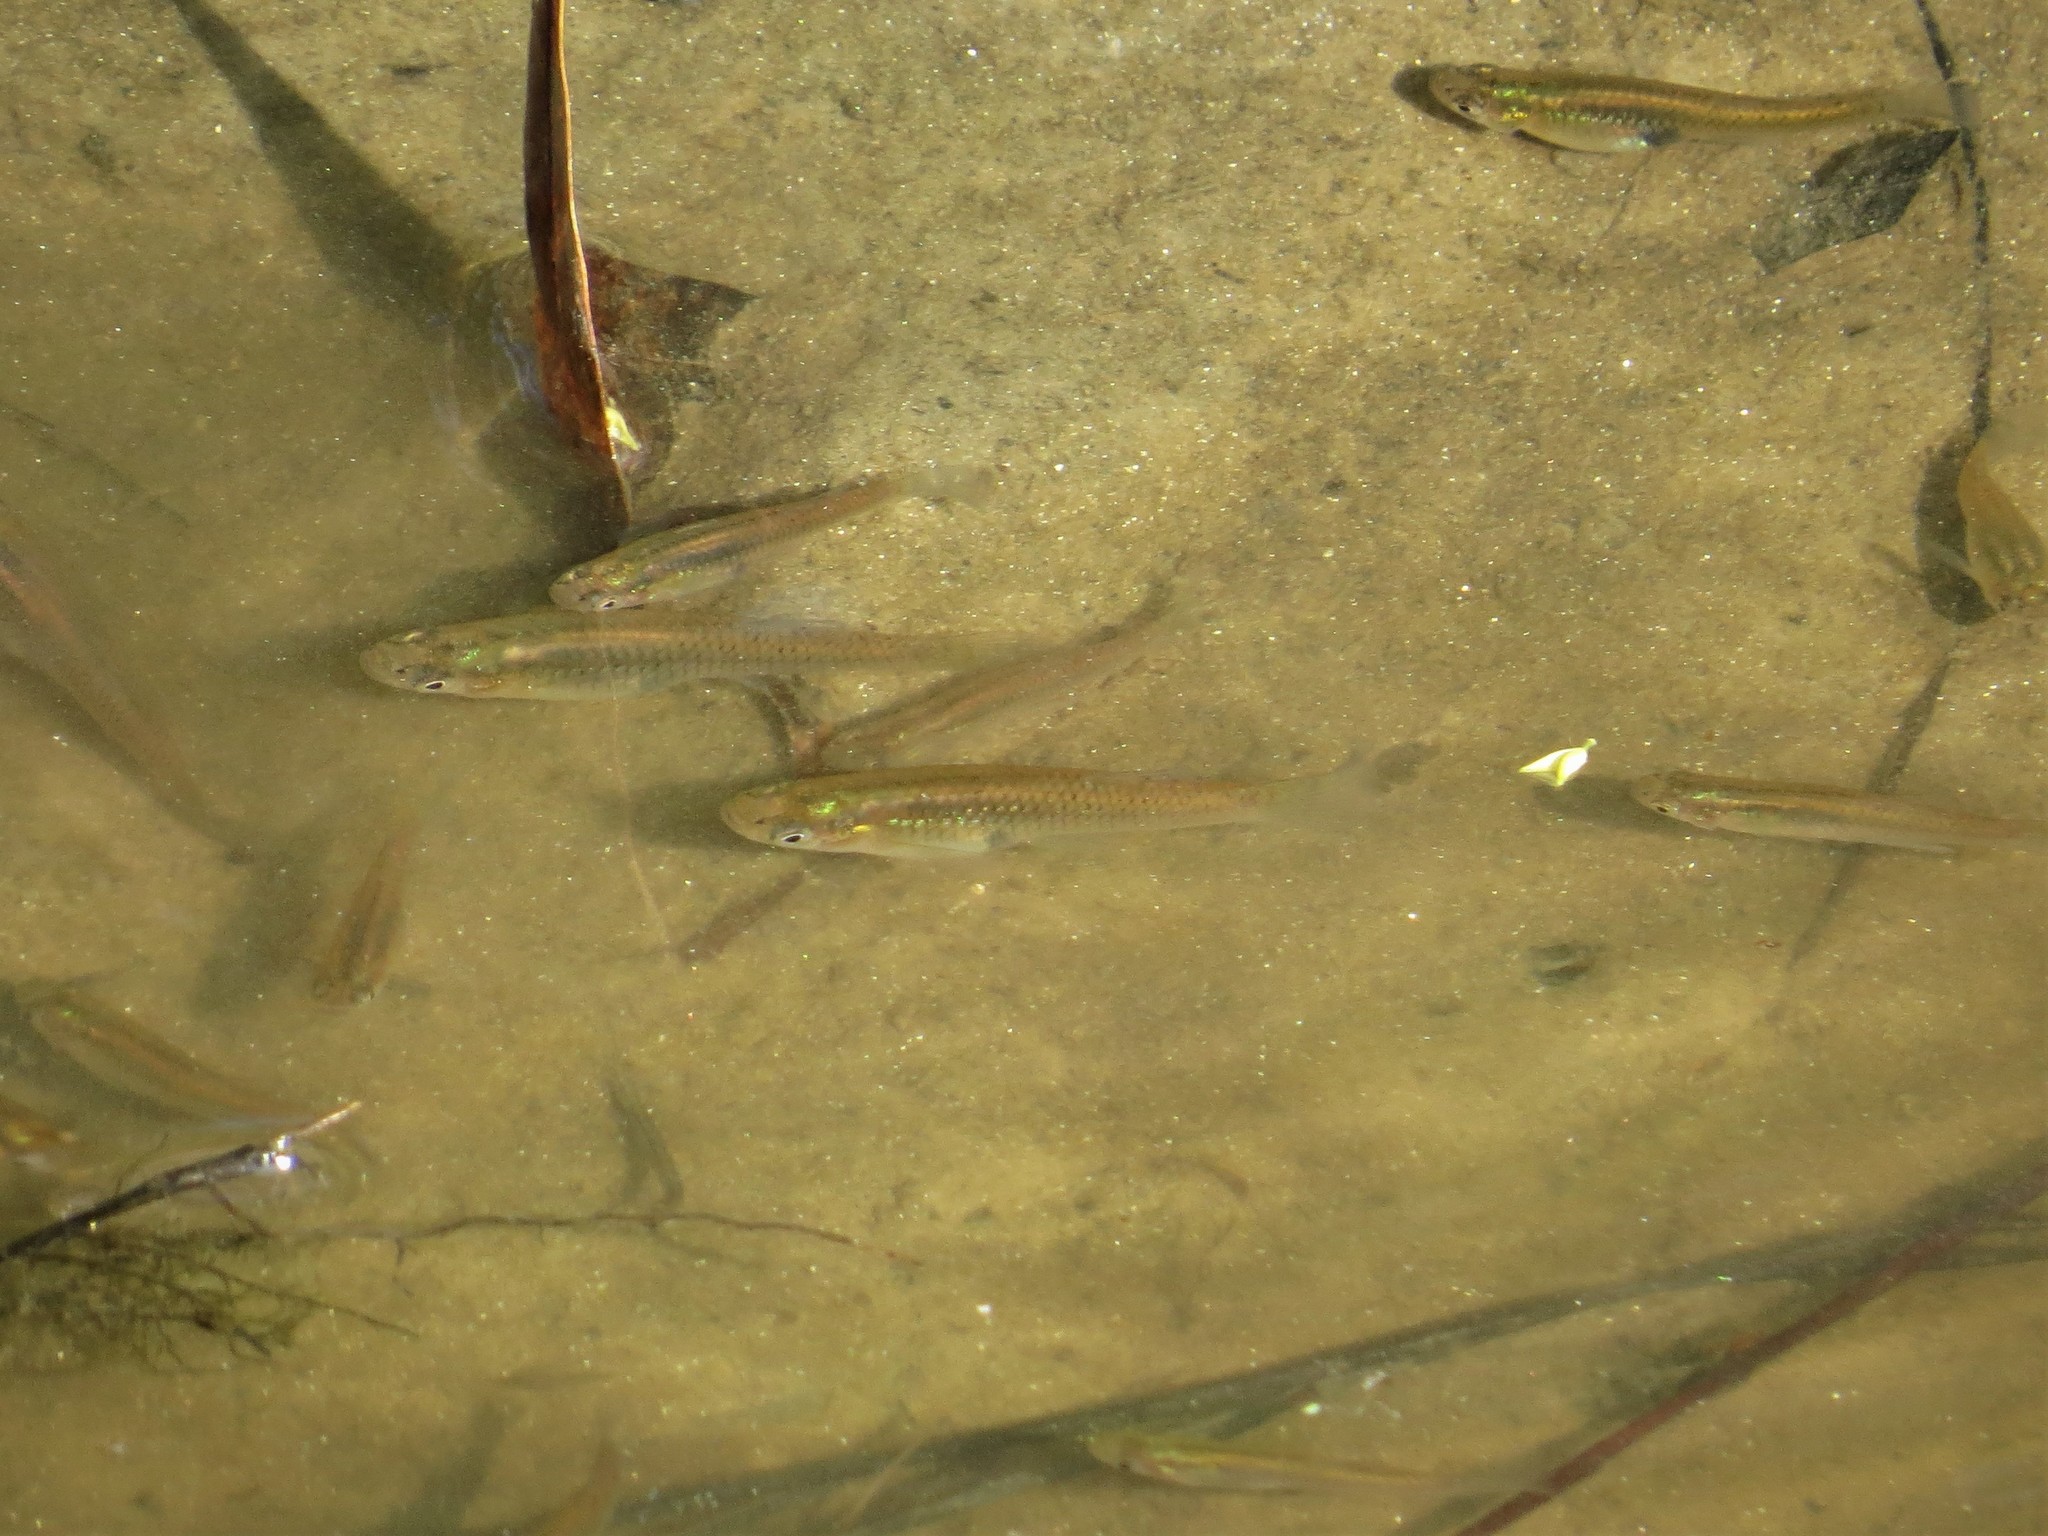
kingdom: Animalia
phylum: Chordata
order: Cyprinodontiformes
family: Poeciliidae
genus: Gambusia
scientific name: Gambusia holbrooki
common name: Eastern mosquitofish
